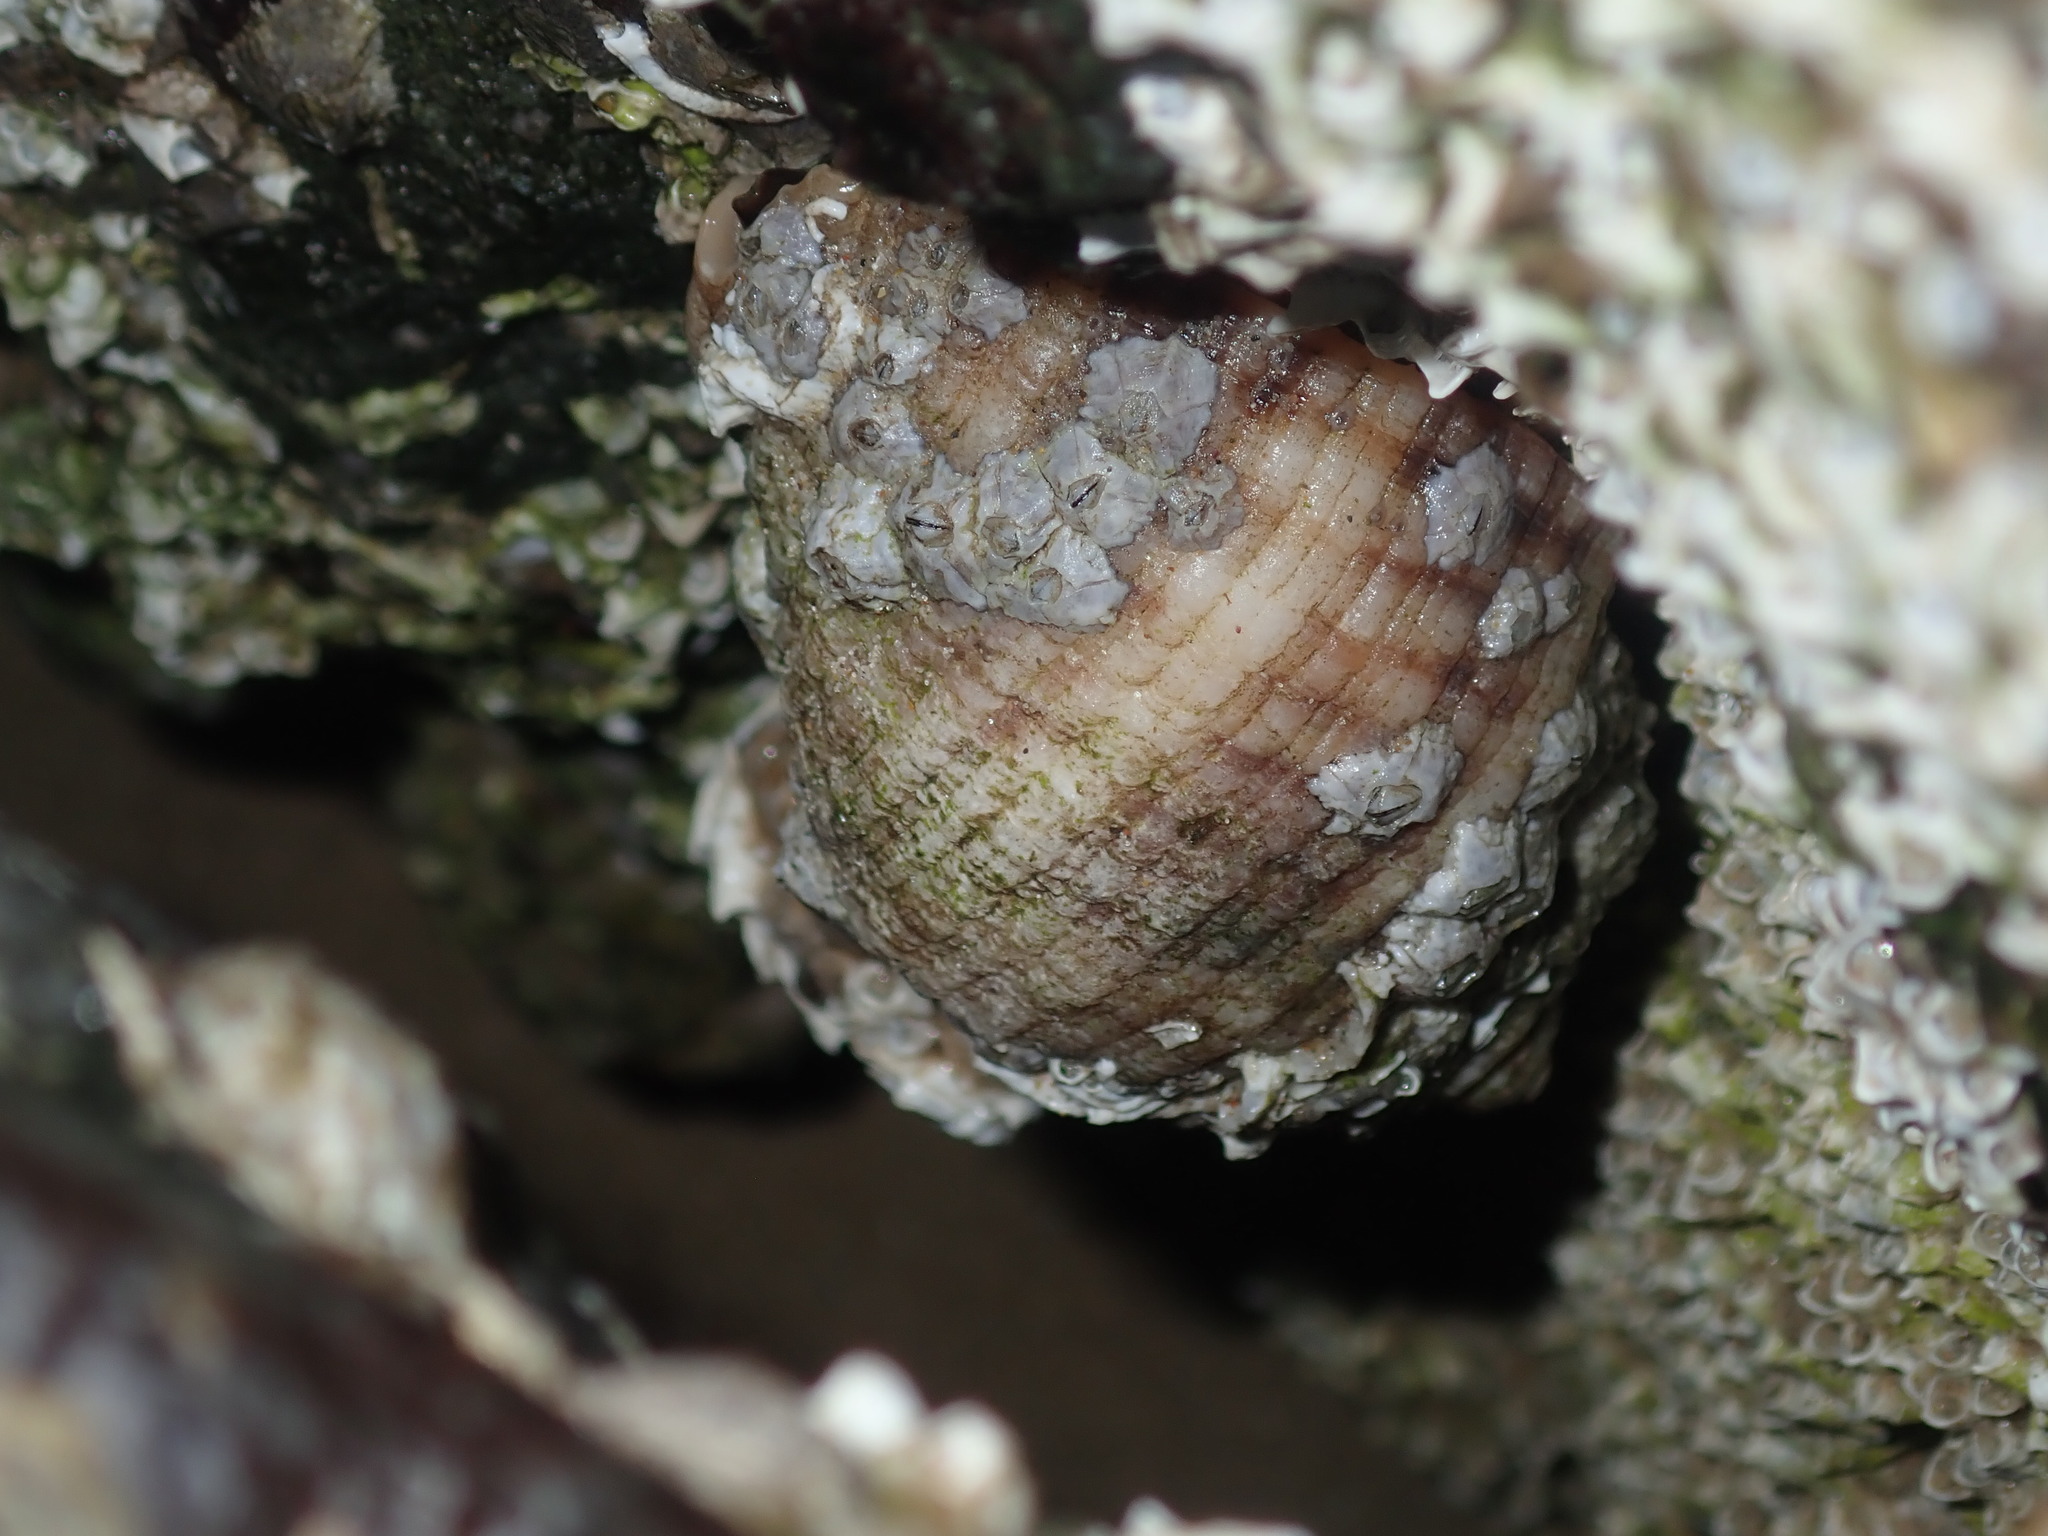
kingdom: Animalia
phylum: Mollusca
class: Gastropoda
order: Neogastropoda
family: Muricidae
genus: Dicathais
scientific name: Dicathais orbita
